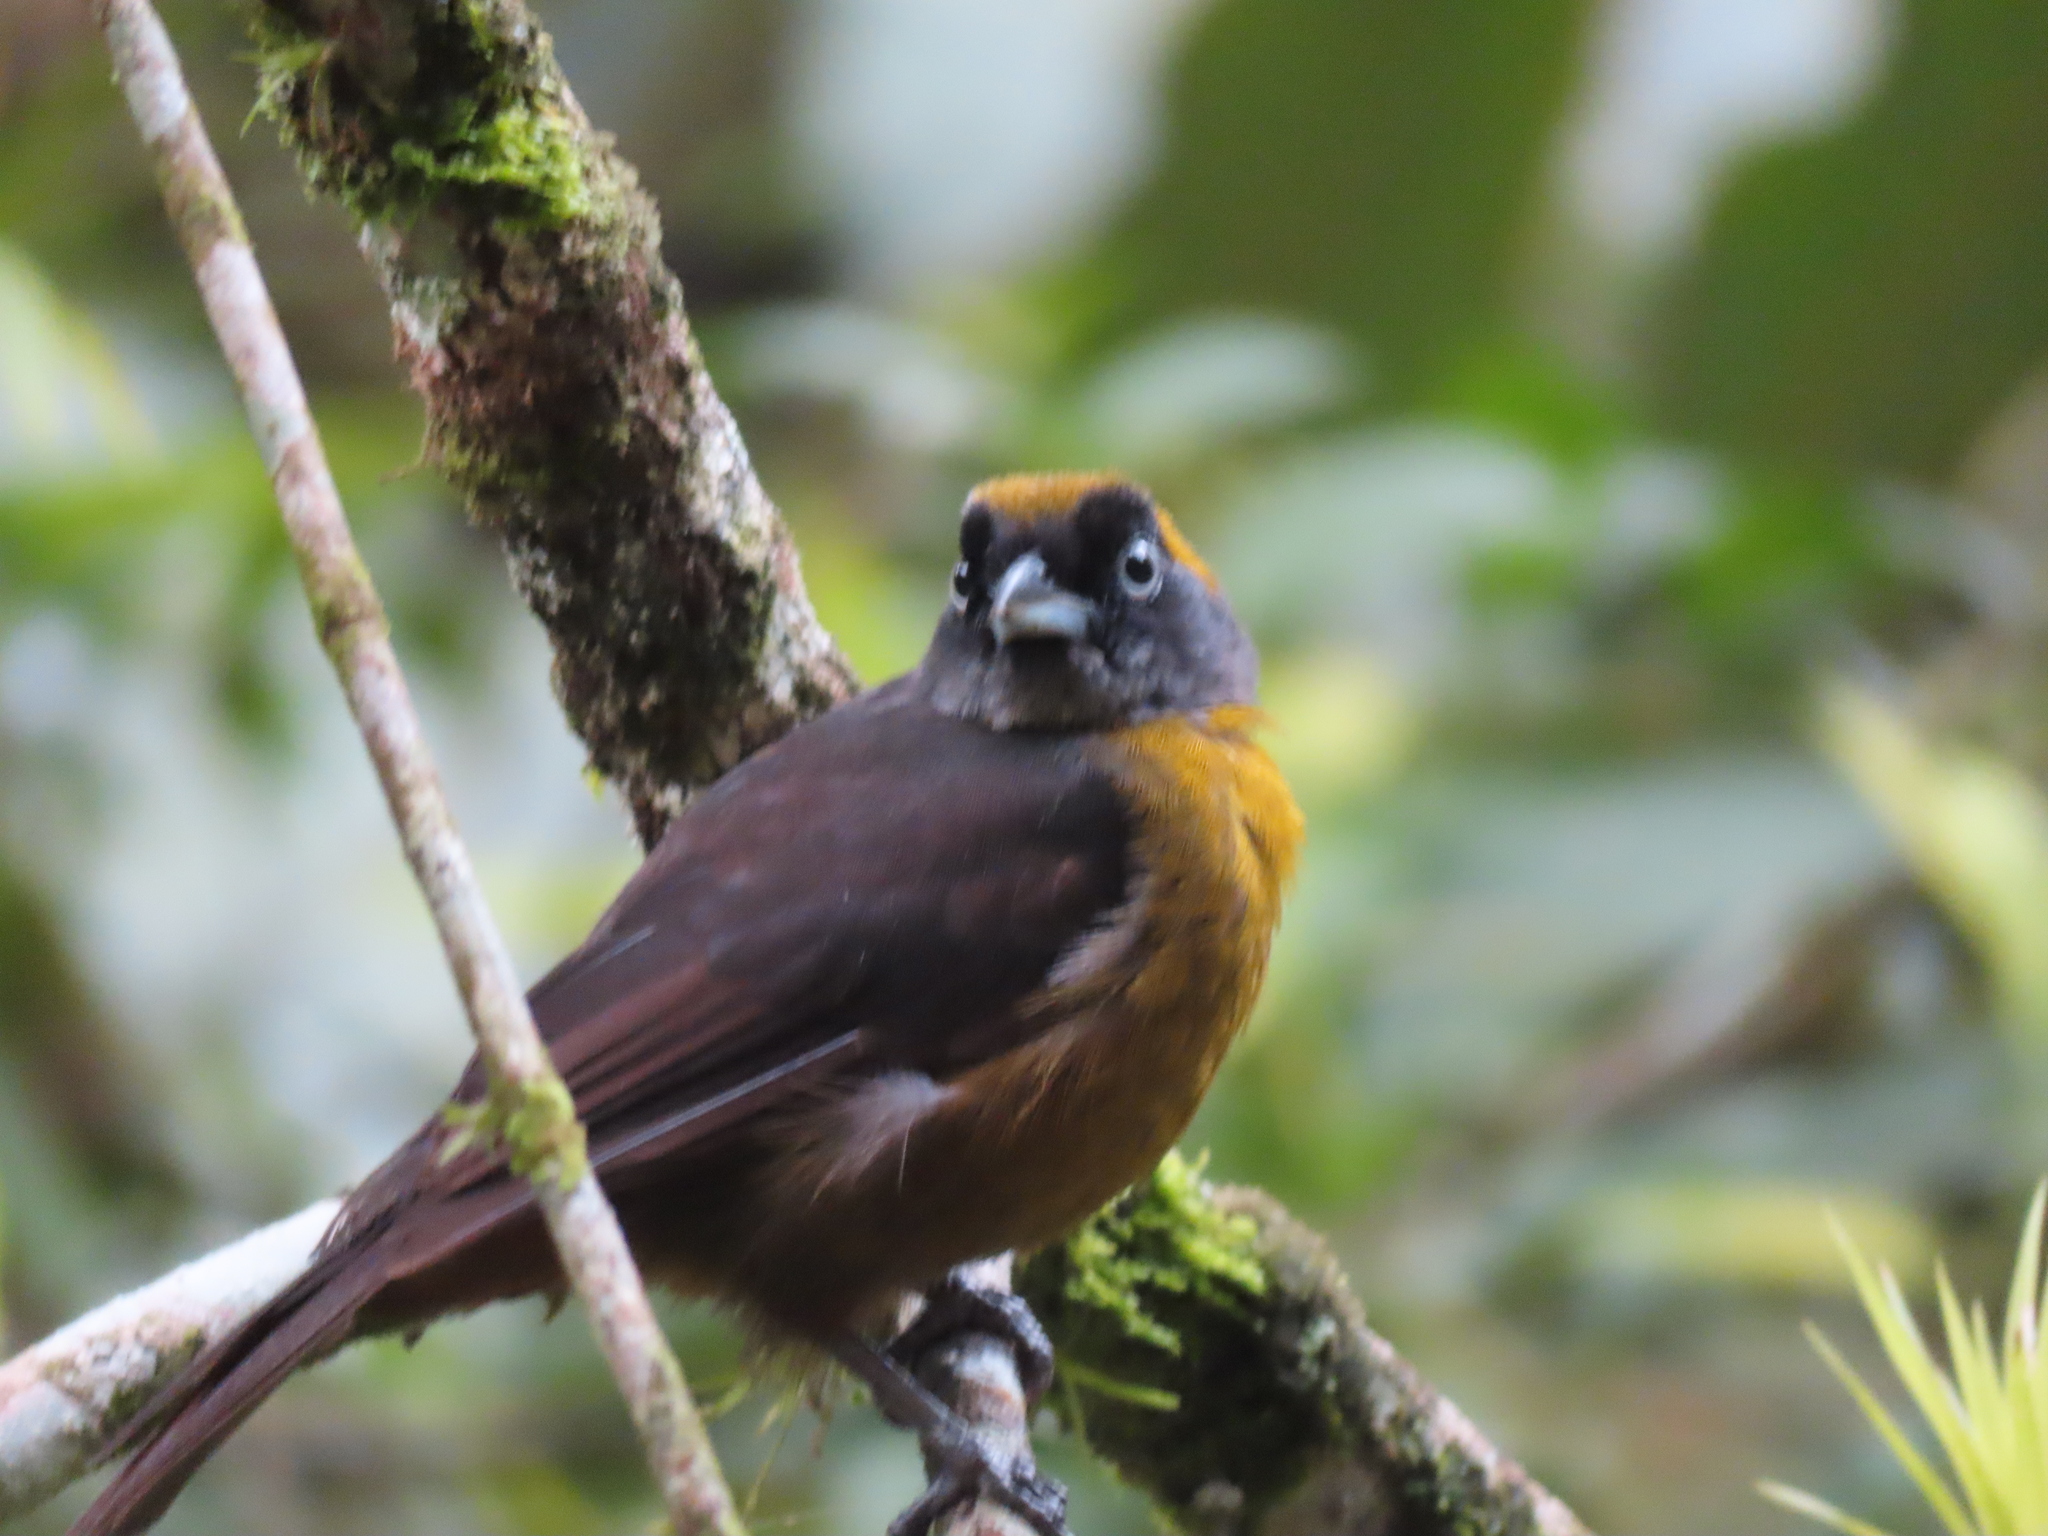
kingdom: Animalia
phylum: Chordata
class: Aves
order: Passeriformes
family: Mitrospingidae
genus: Mitrospingus
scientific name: Mitrospingus cassinii
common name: Dusky-faced tanager
